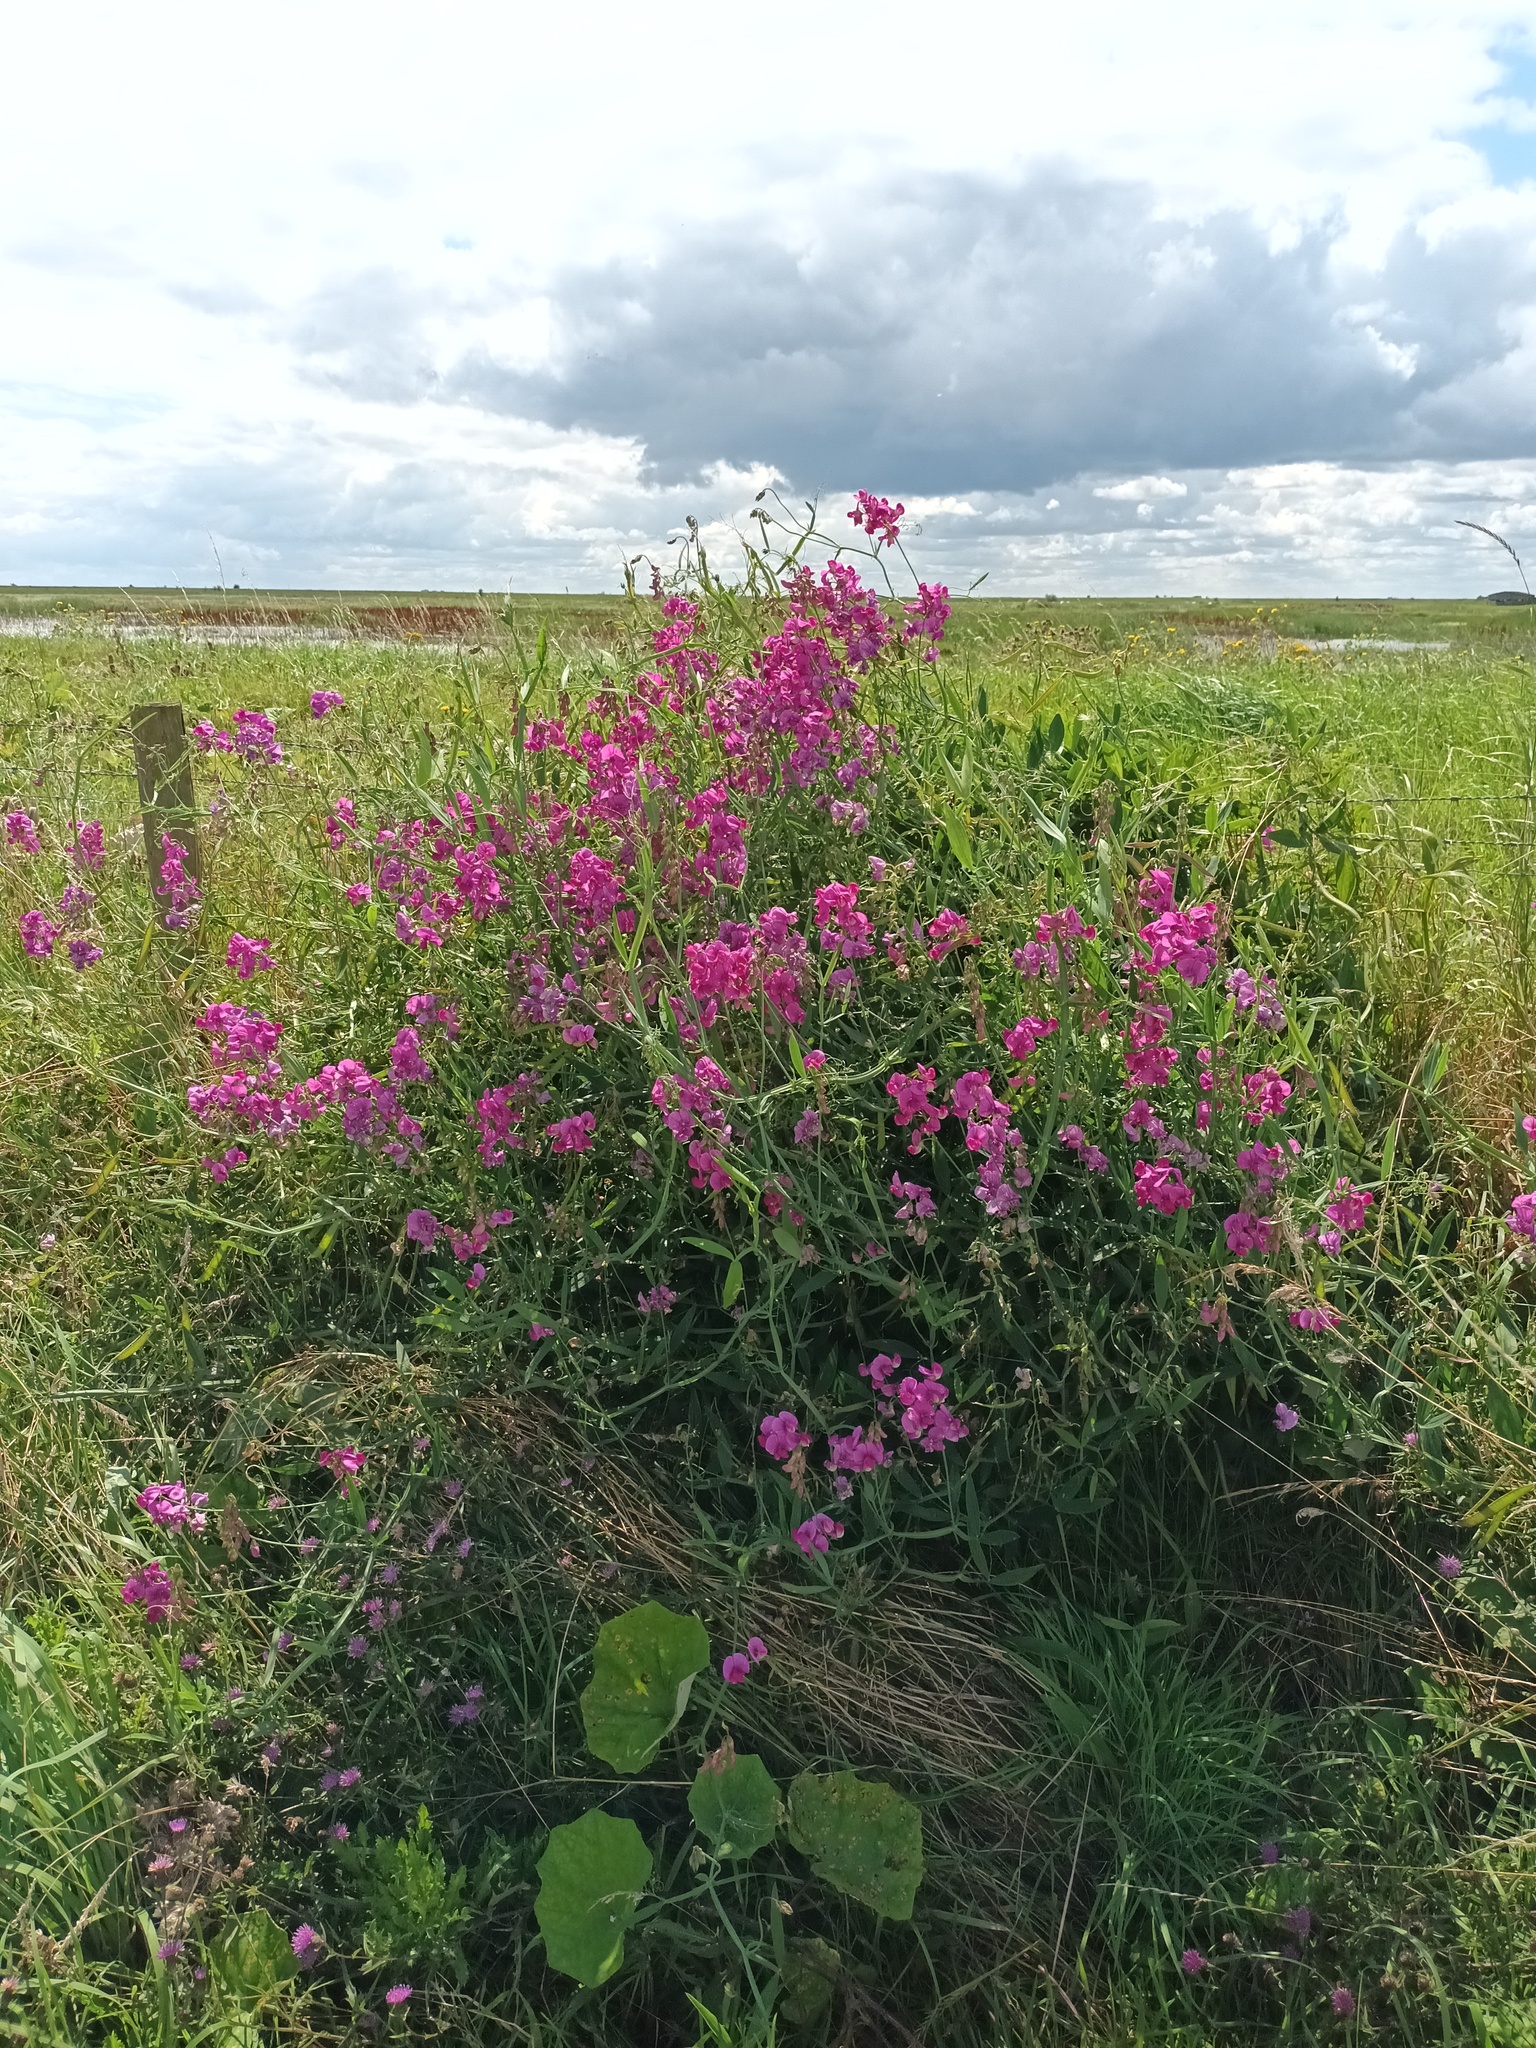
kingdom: Plantae
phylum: Tracheophyta
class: Magnoliopsida
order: Fabales
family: Fabaceae
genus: Lathyrus
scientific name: Lathyrus latifolius
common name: Perennial pea
